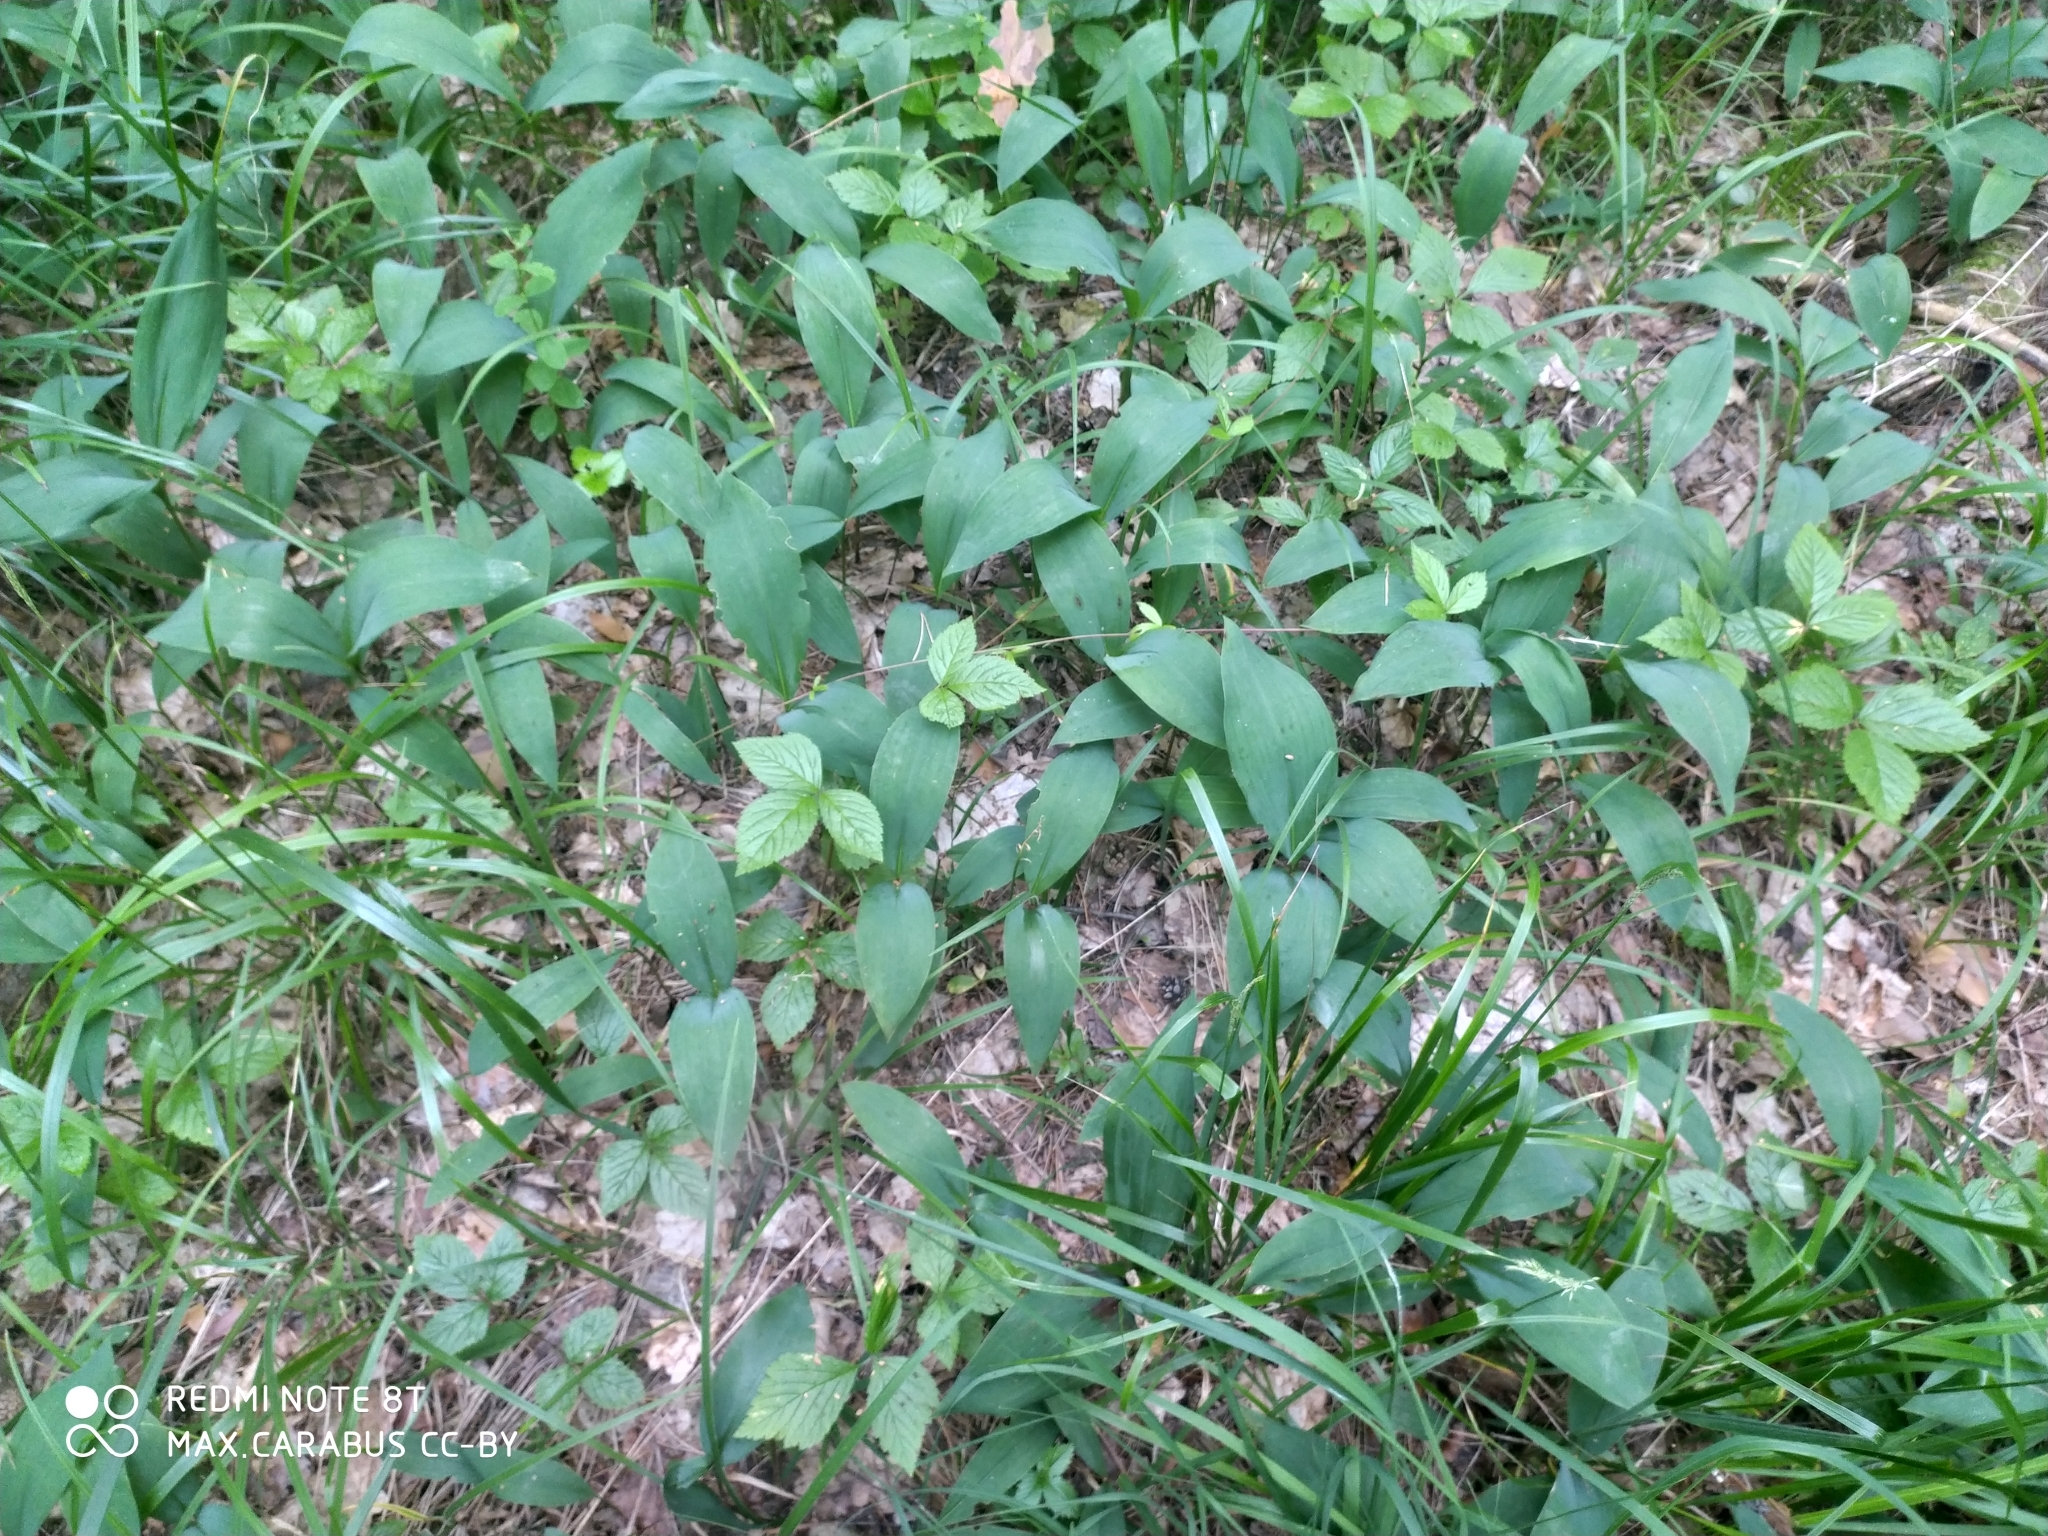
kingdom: Plantae
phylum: Tracheophyta
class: Liliopsida
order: Asparagales
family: Asparagaceae
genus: Convallaria
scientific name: Convallaria majalis
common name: Lily-of-the-valley
